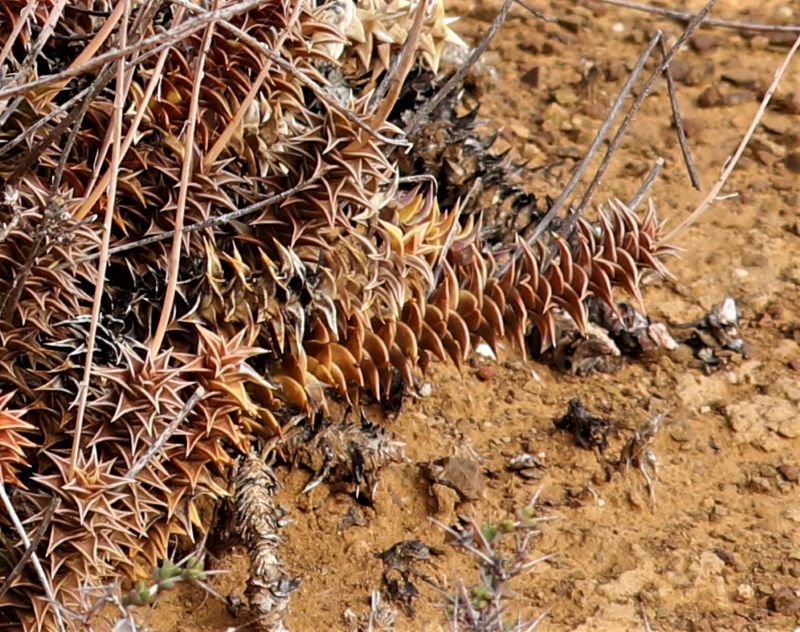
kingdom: Plantae
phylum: Tracheophyta
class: Liliopsida
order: Asparagales
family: Asphodelaceae
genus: Astroloba
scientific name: Astroloba foliolosa
